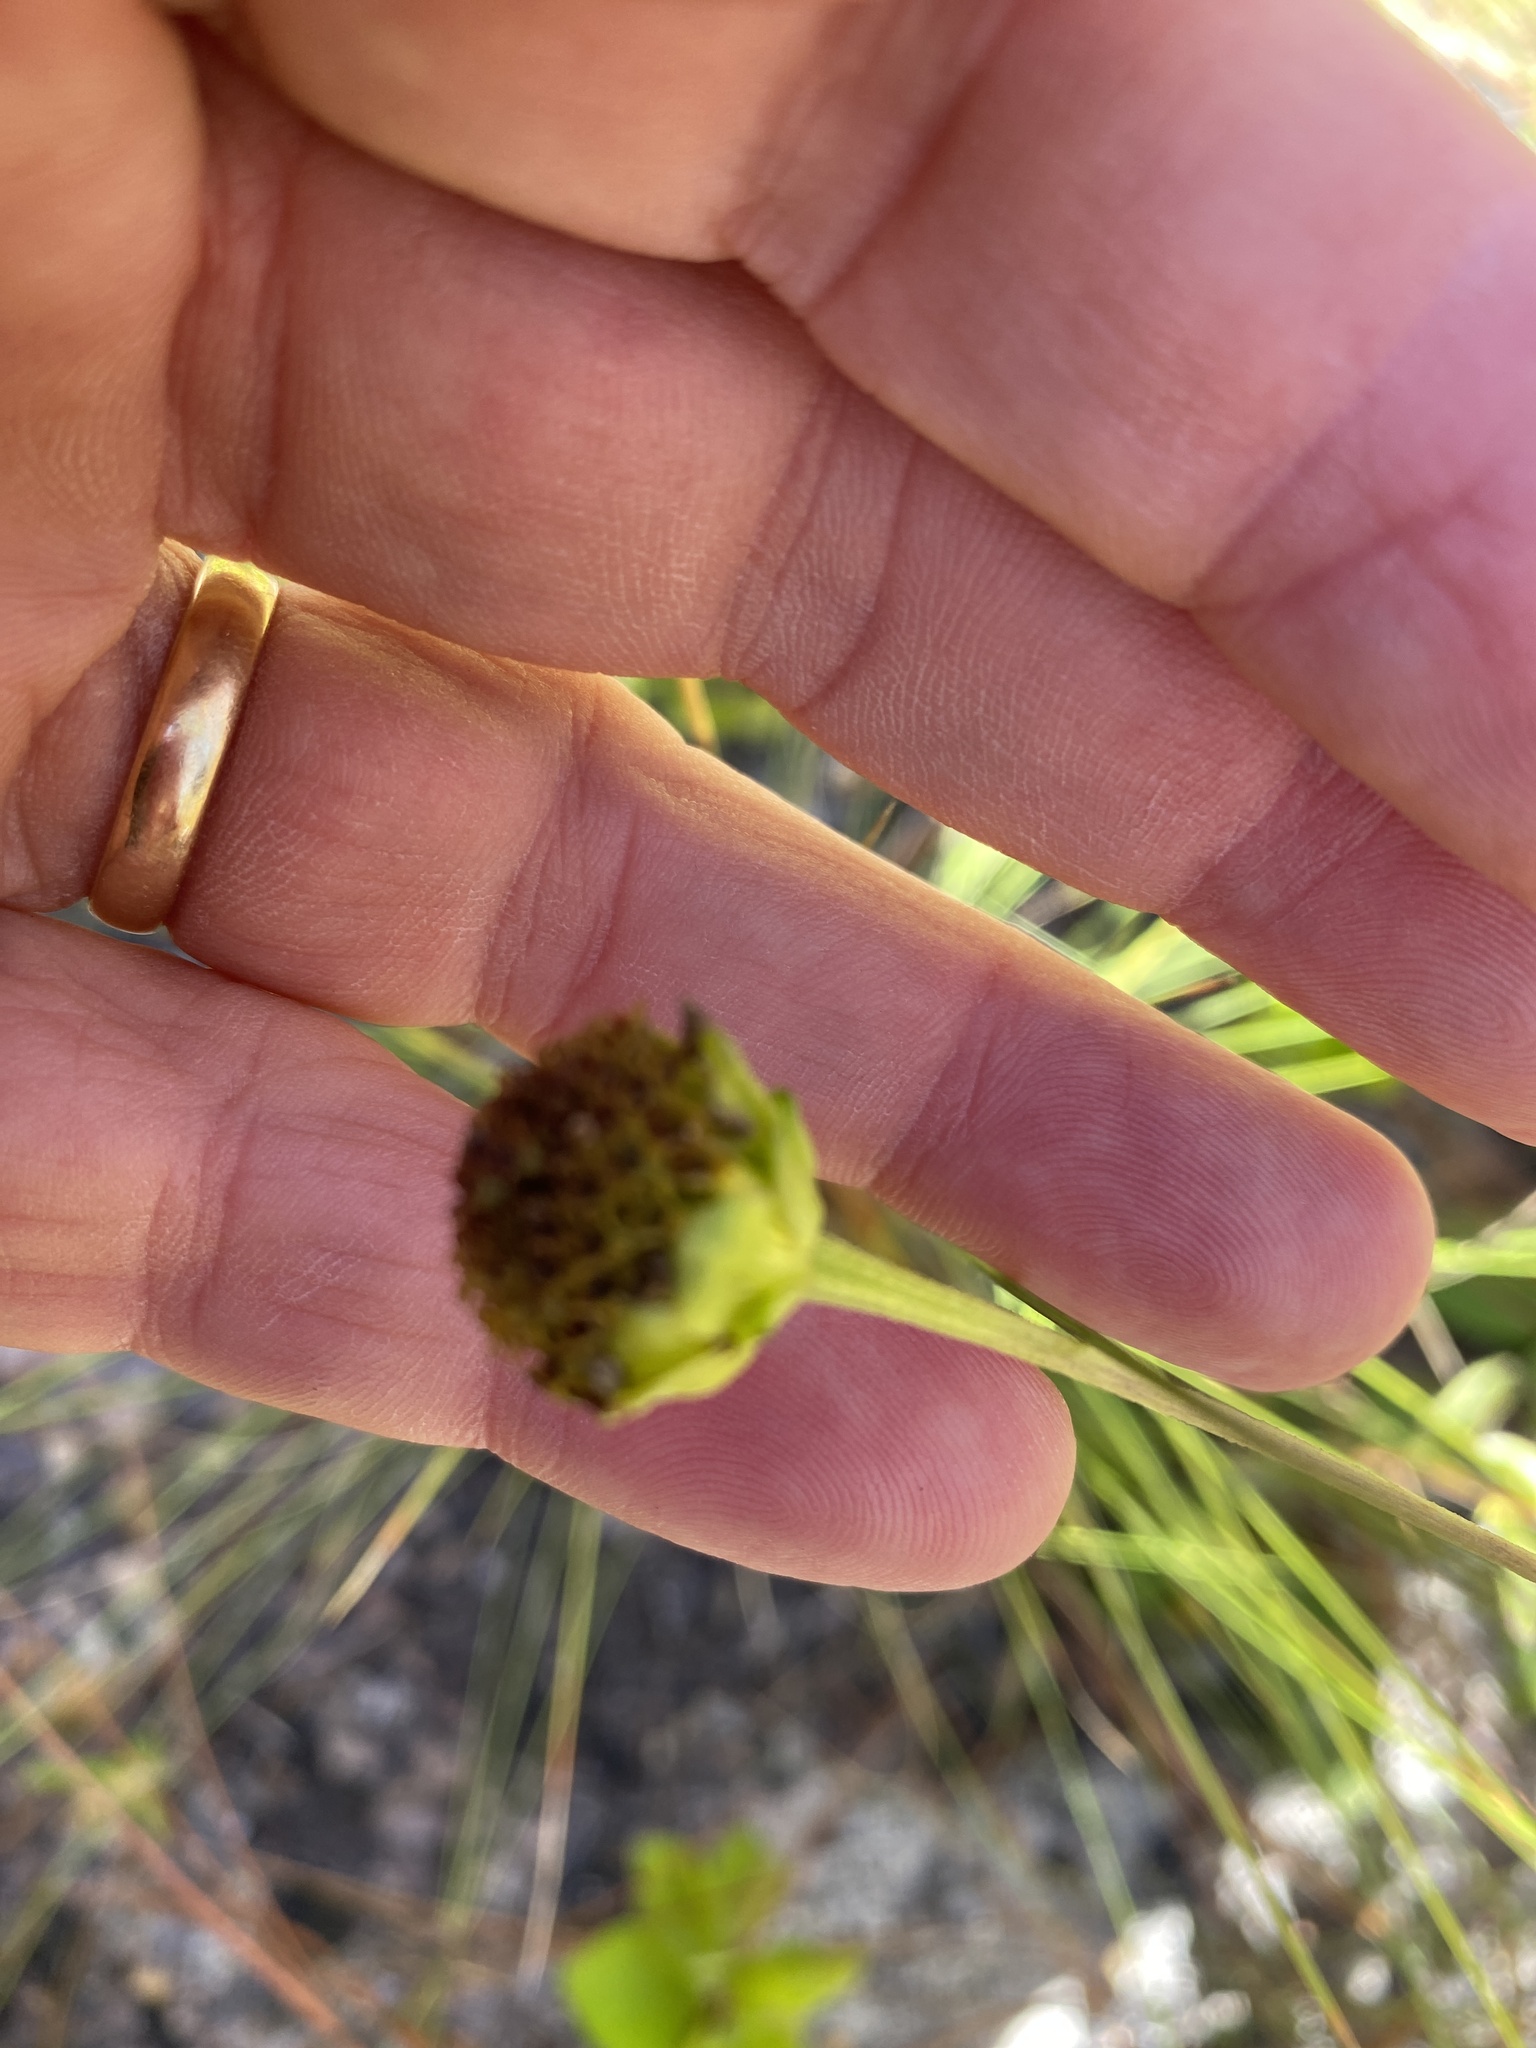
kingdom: Plantae
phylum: Tracheophyta
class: Magnoliopsida
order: Asterales
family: Asteraceae
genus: Helianthus
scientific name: Helianthus atrorubens
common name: Dark-eyed sunflower
